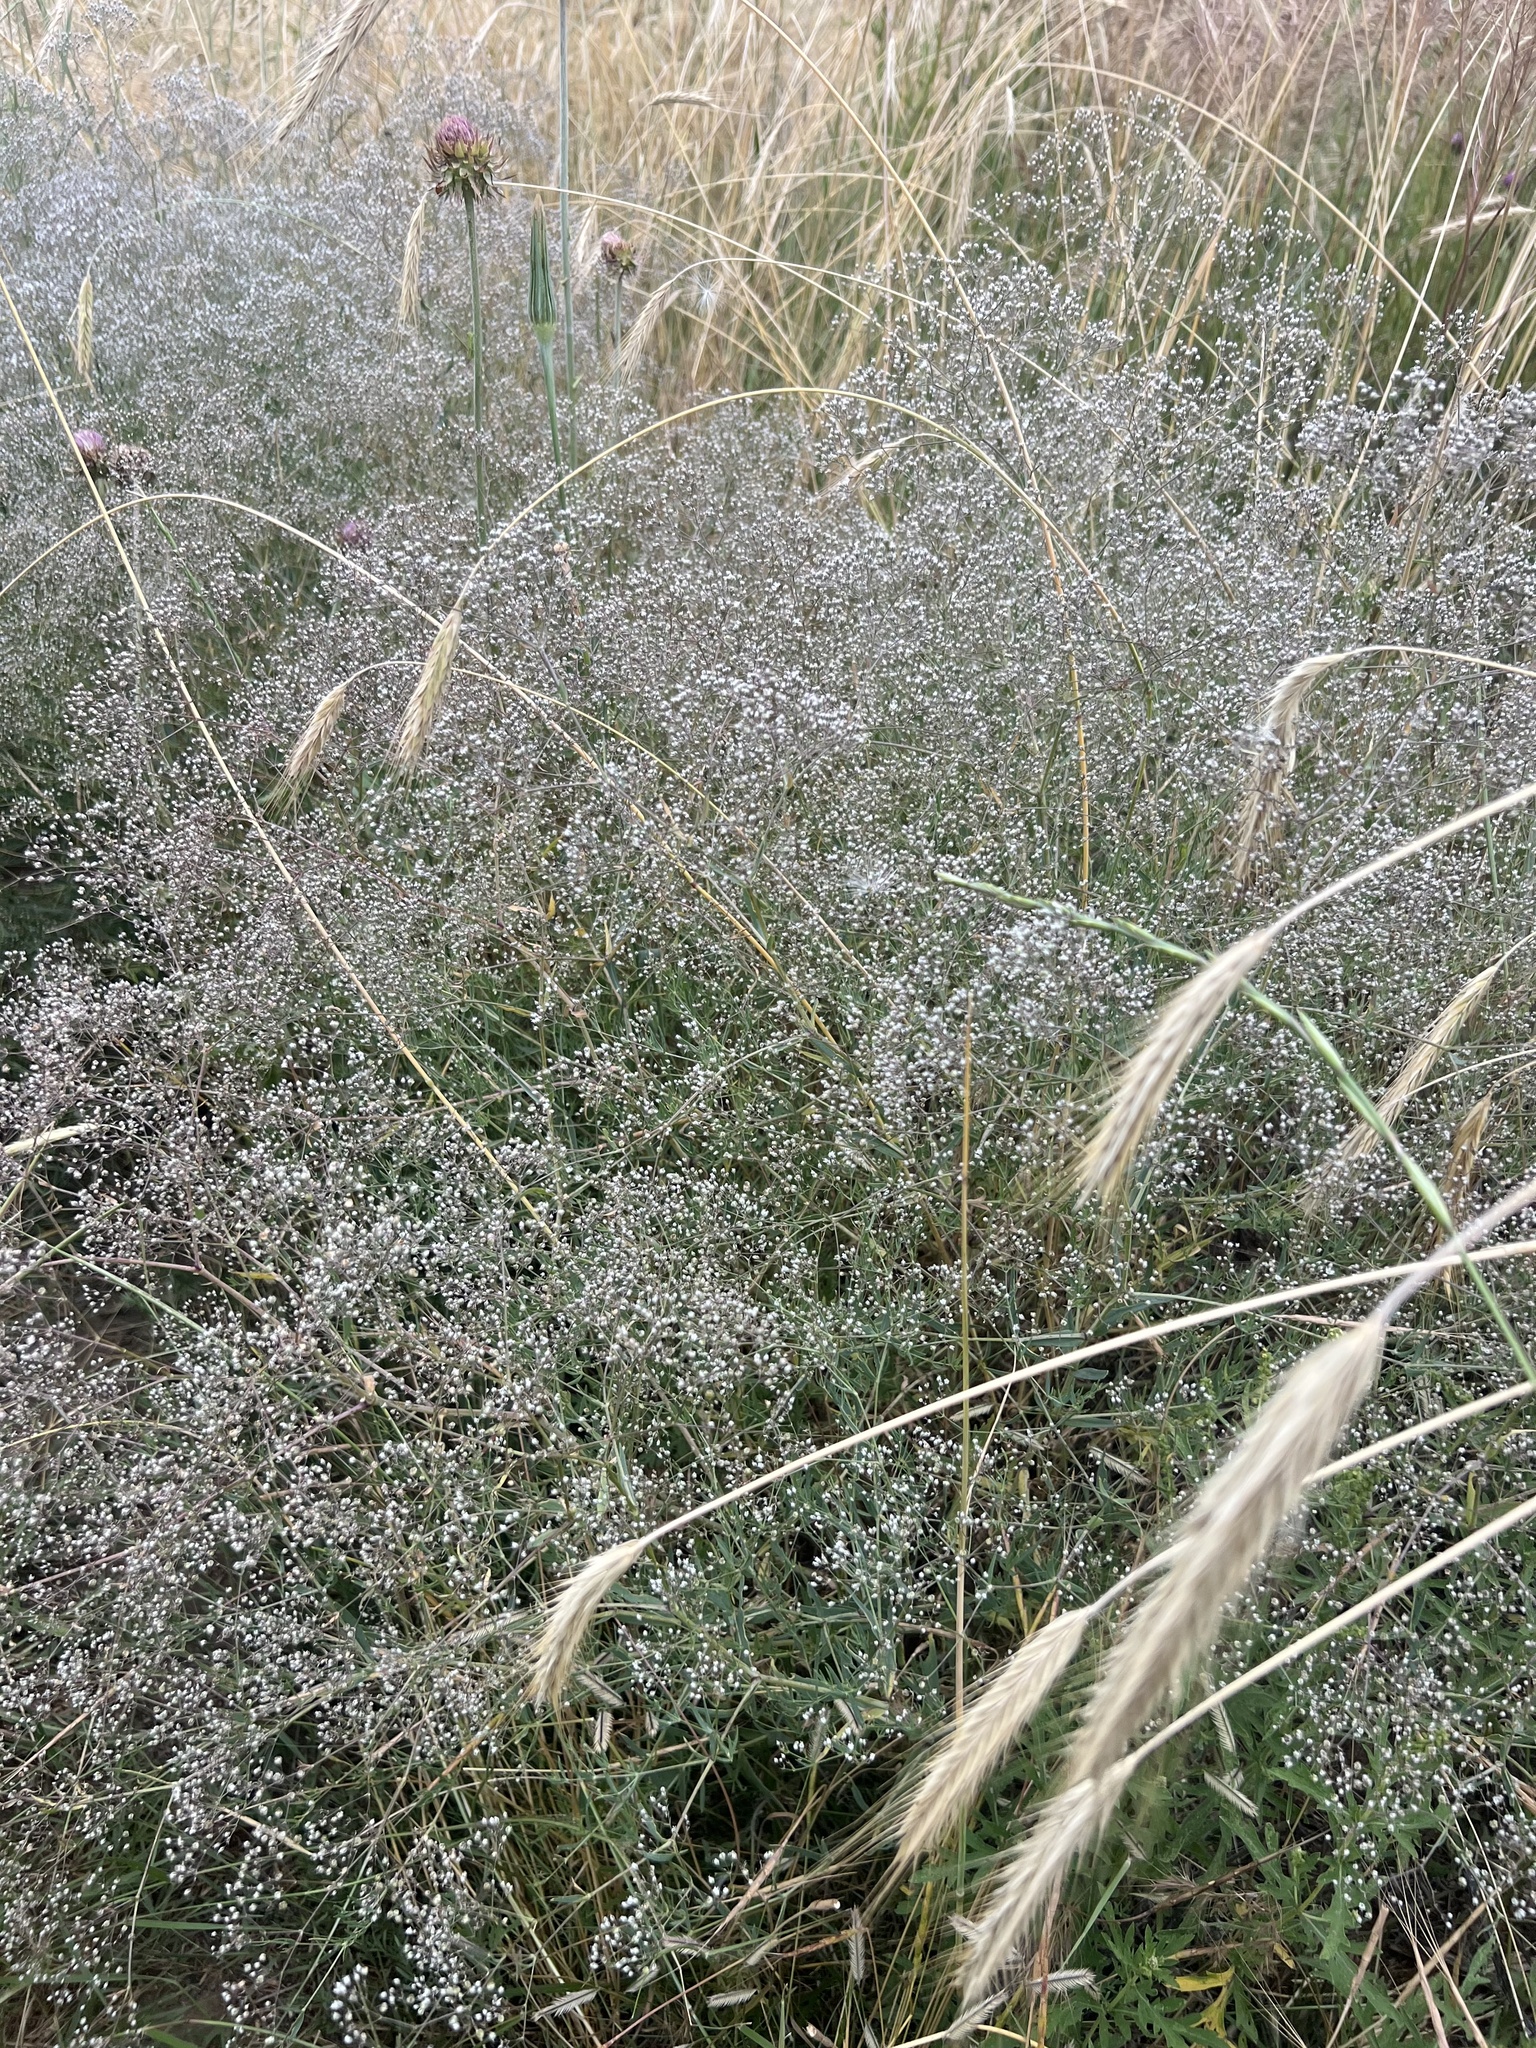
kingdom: Plantae
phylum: Tracheophyta
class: Magnoliopsida
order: Caryophyllales
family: Caryophyllaceae
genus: Gypsophila
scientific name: Gypsophila paniculata
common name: Baby's-breath
